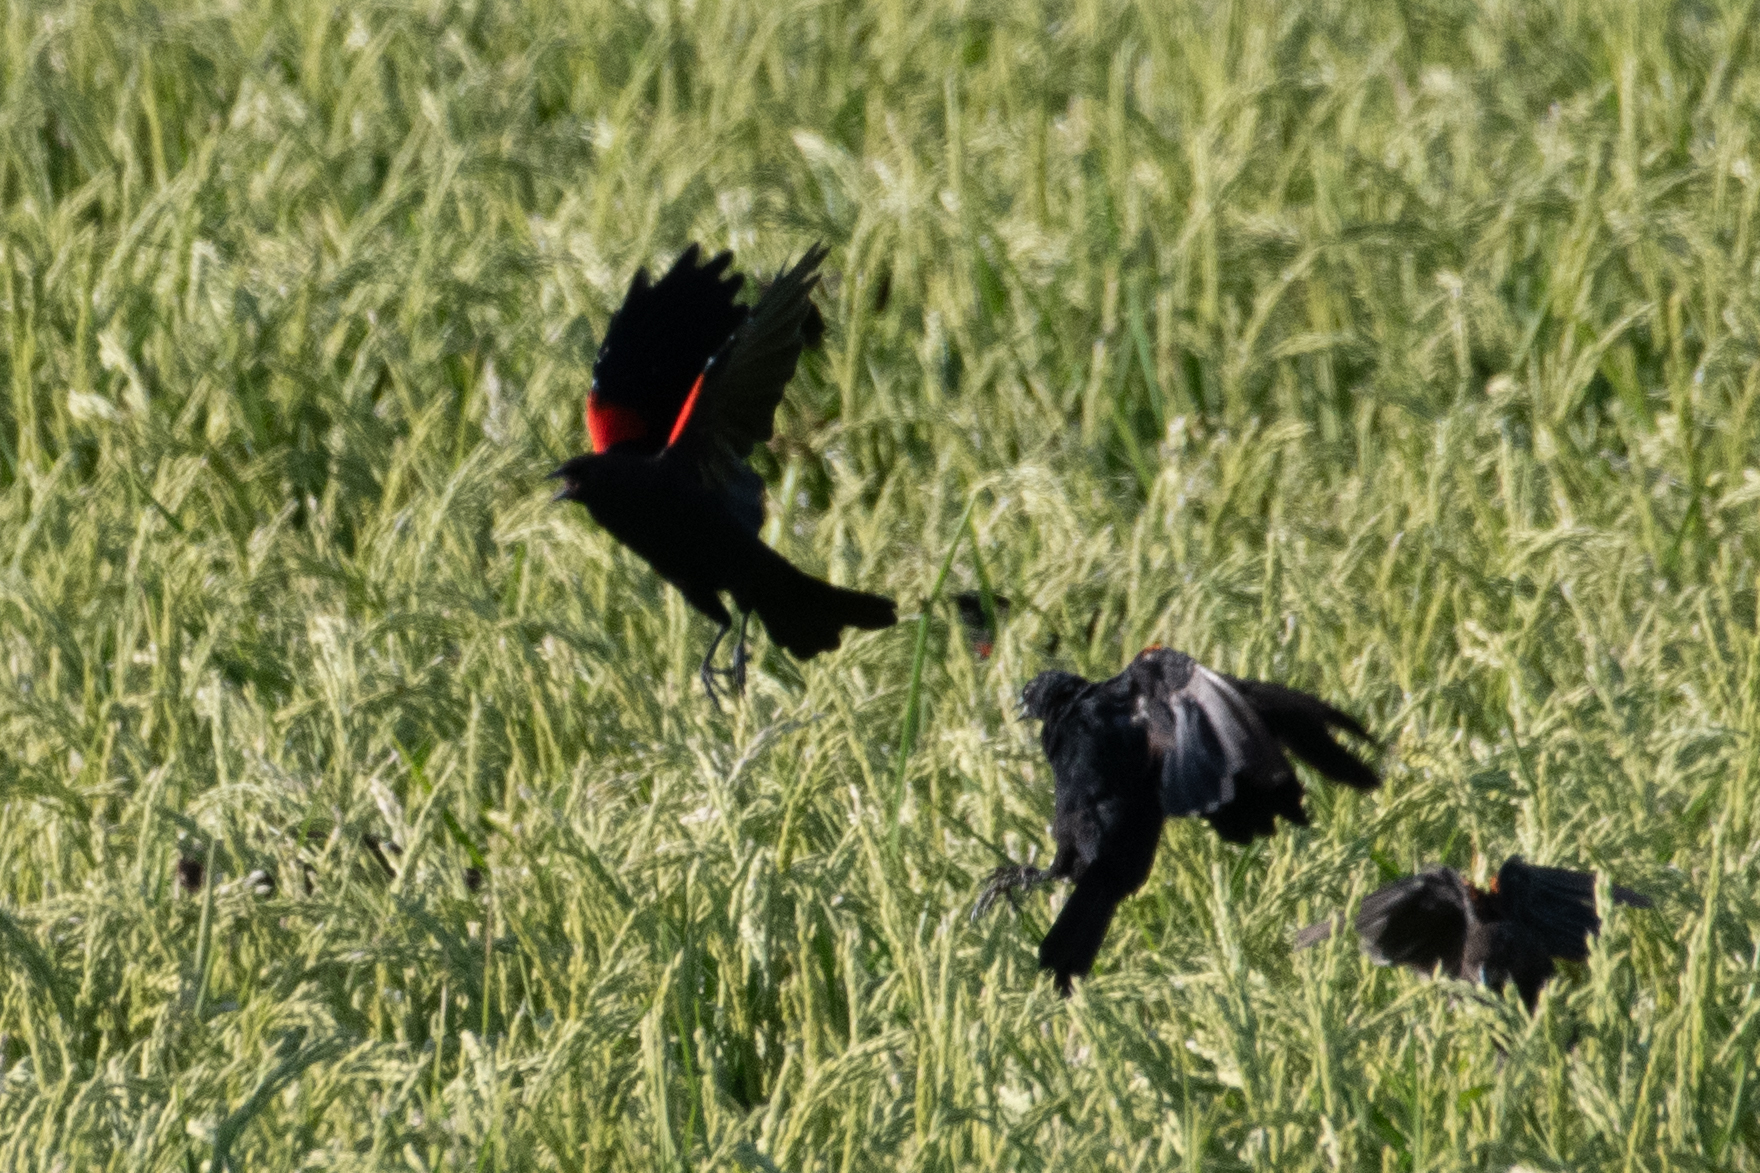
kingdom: Animalia
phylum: Chordata
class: Aves
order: Passeriformes
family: Icteridae
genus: Agelaius
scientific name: Agelaius phoeniceus
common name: Red-winged blackbird
